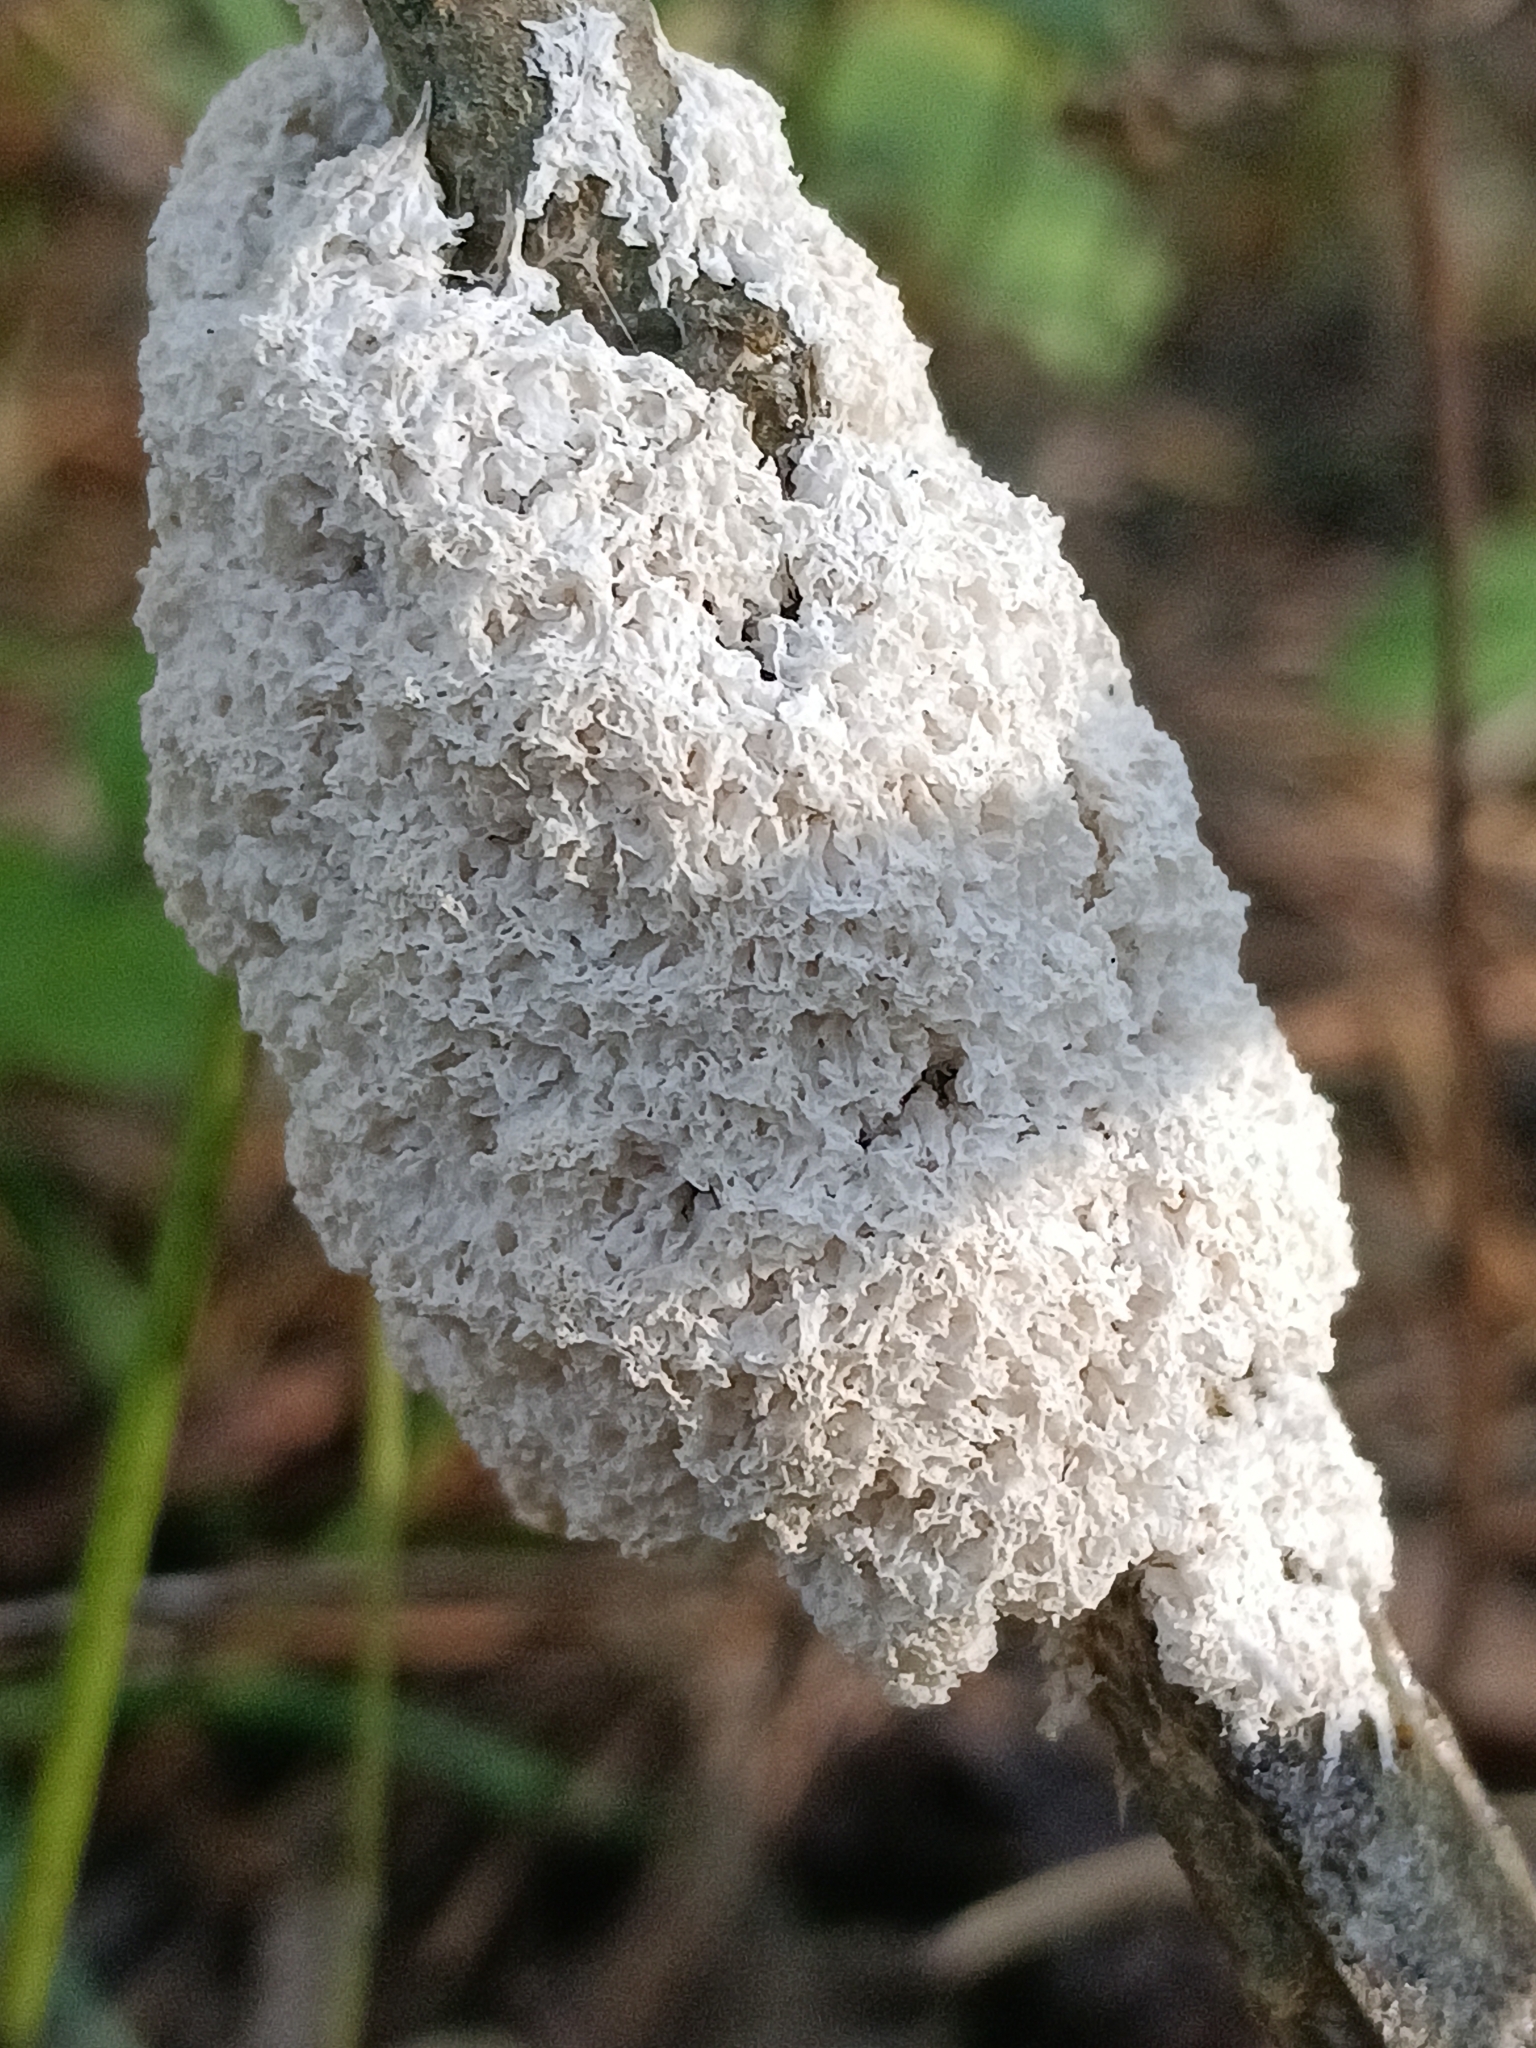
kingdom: Protozoa
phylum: Mycetozoa
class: Myxomycetes
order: Physarales
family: Physaraceae
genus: Didymium
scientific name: Didymium
